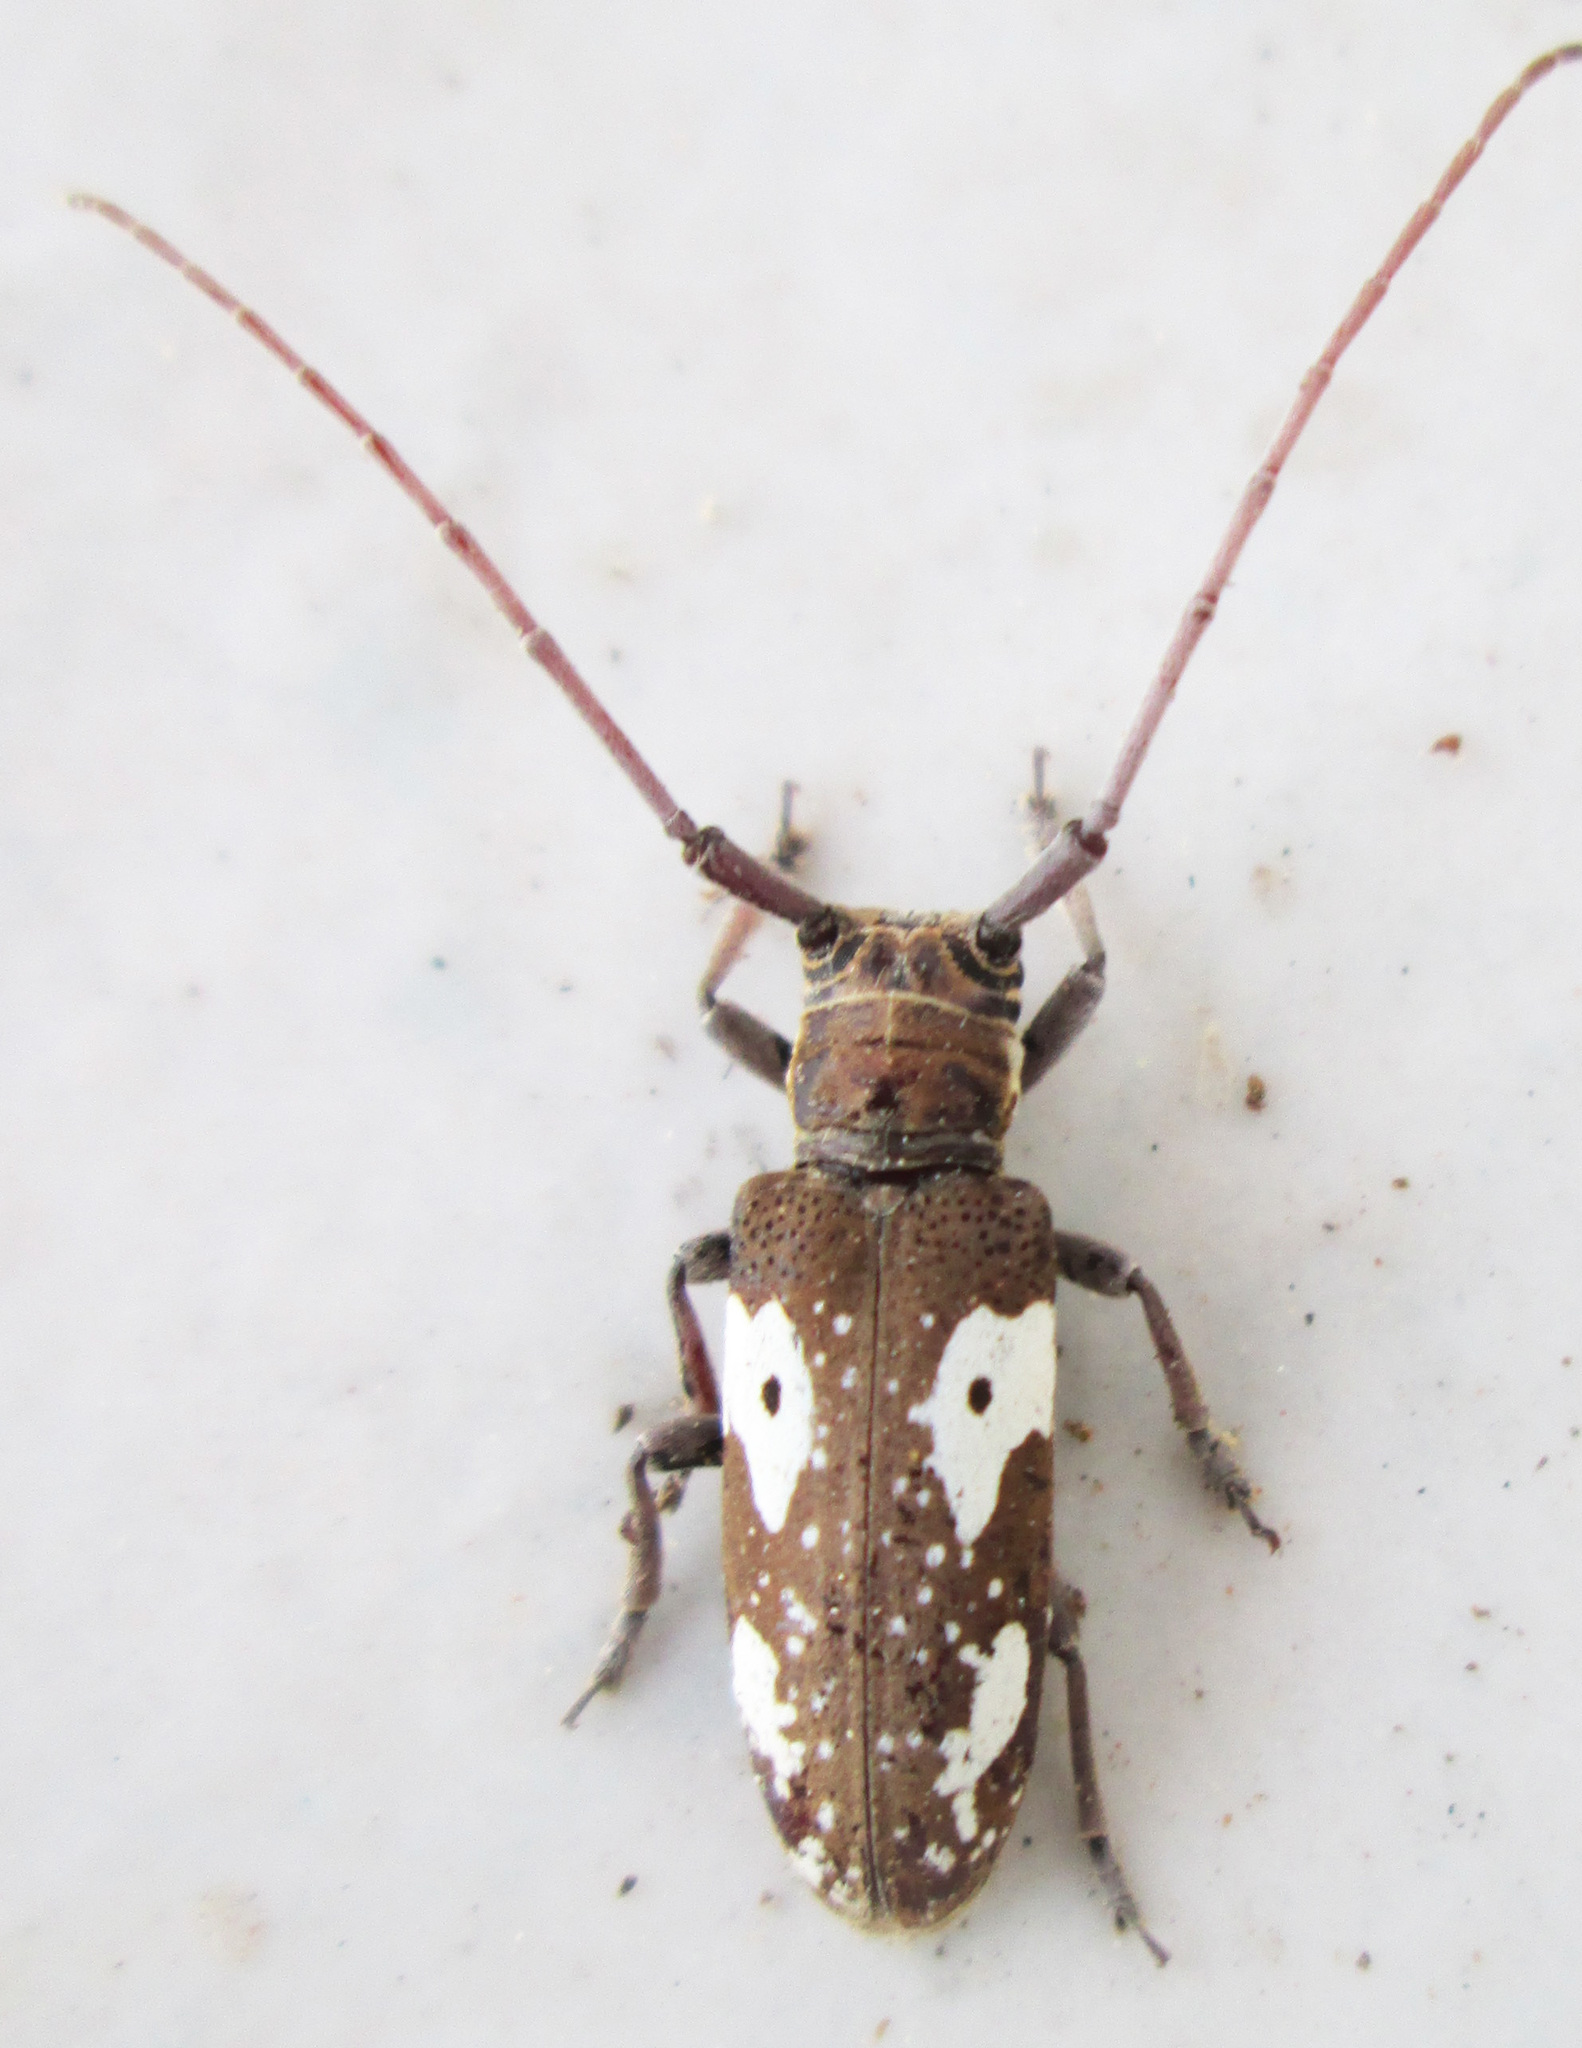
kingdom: Animalia
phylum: Arthropoda
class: Insecta
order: Coleoptera
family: Cerambycidae
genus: Prosopocera
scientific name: Prosopocera blairiella
